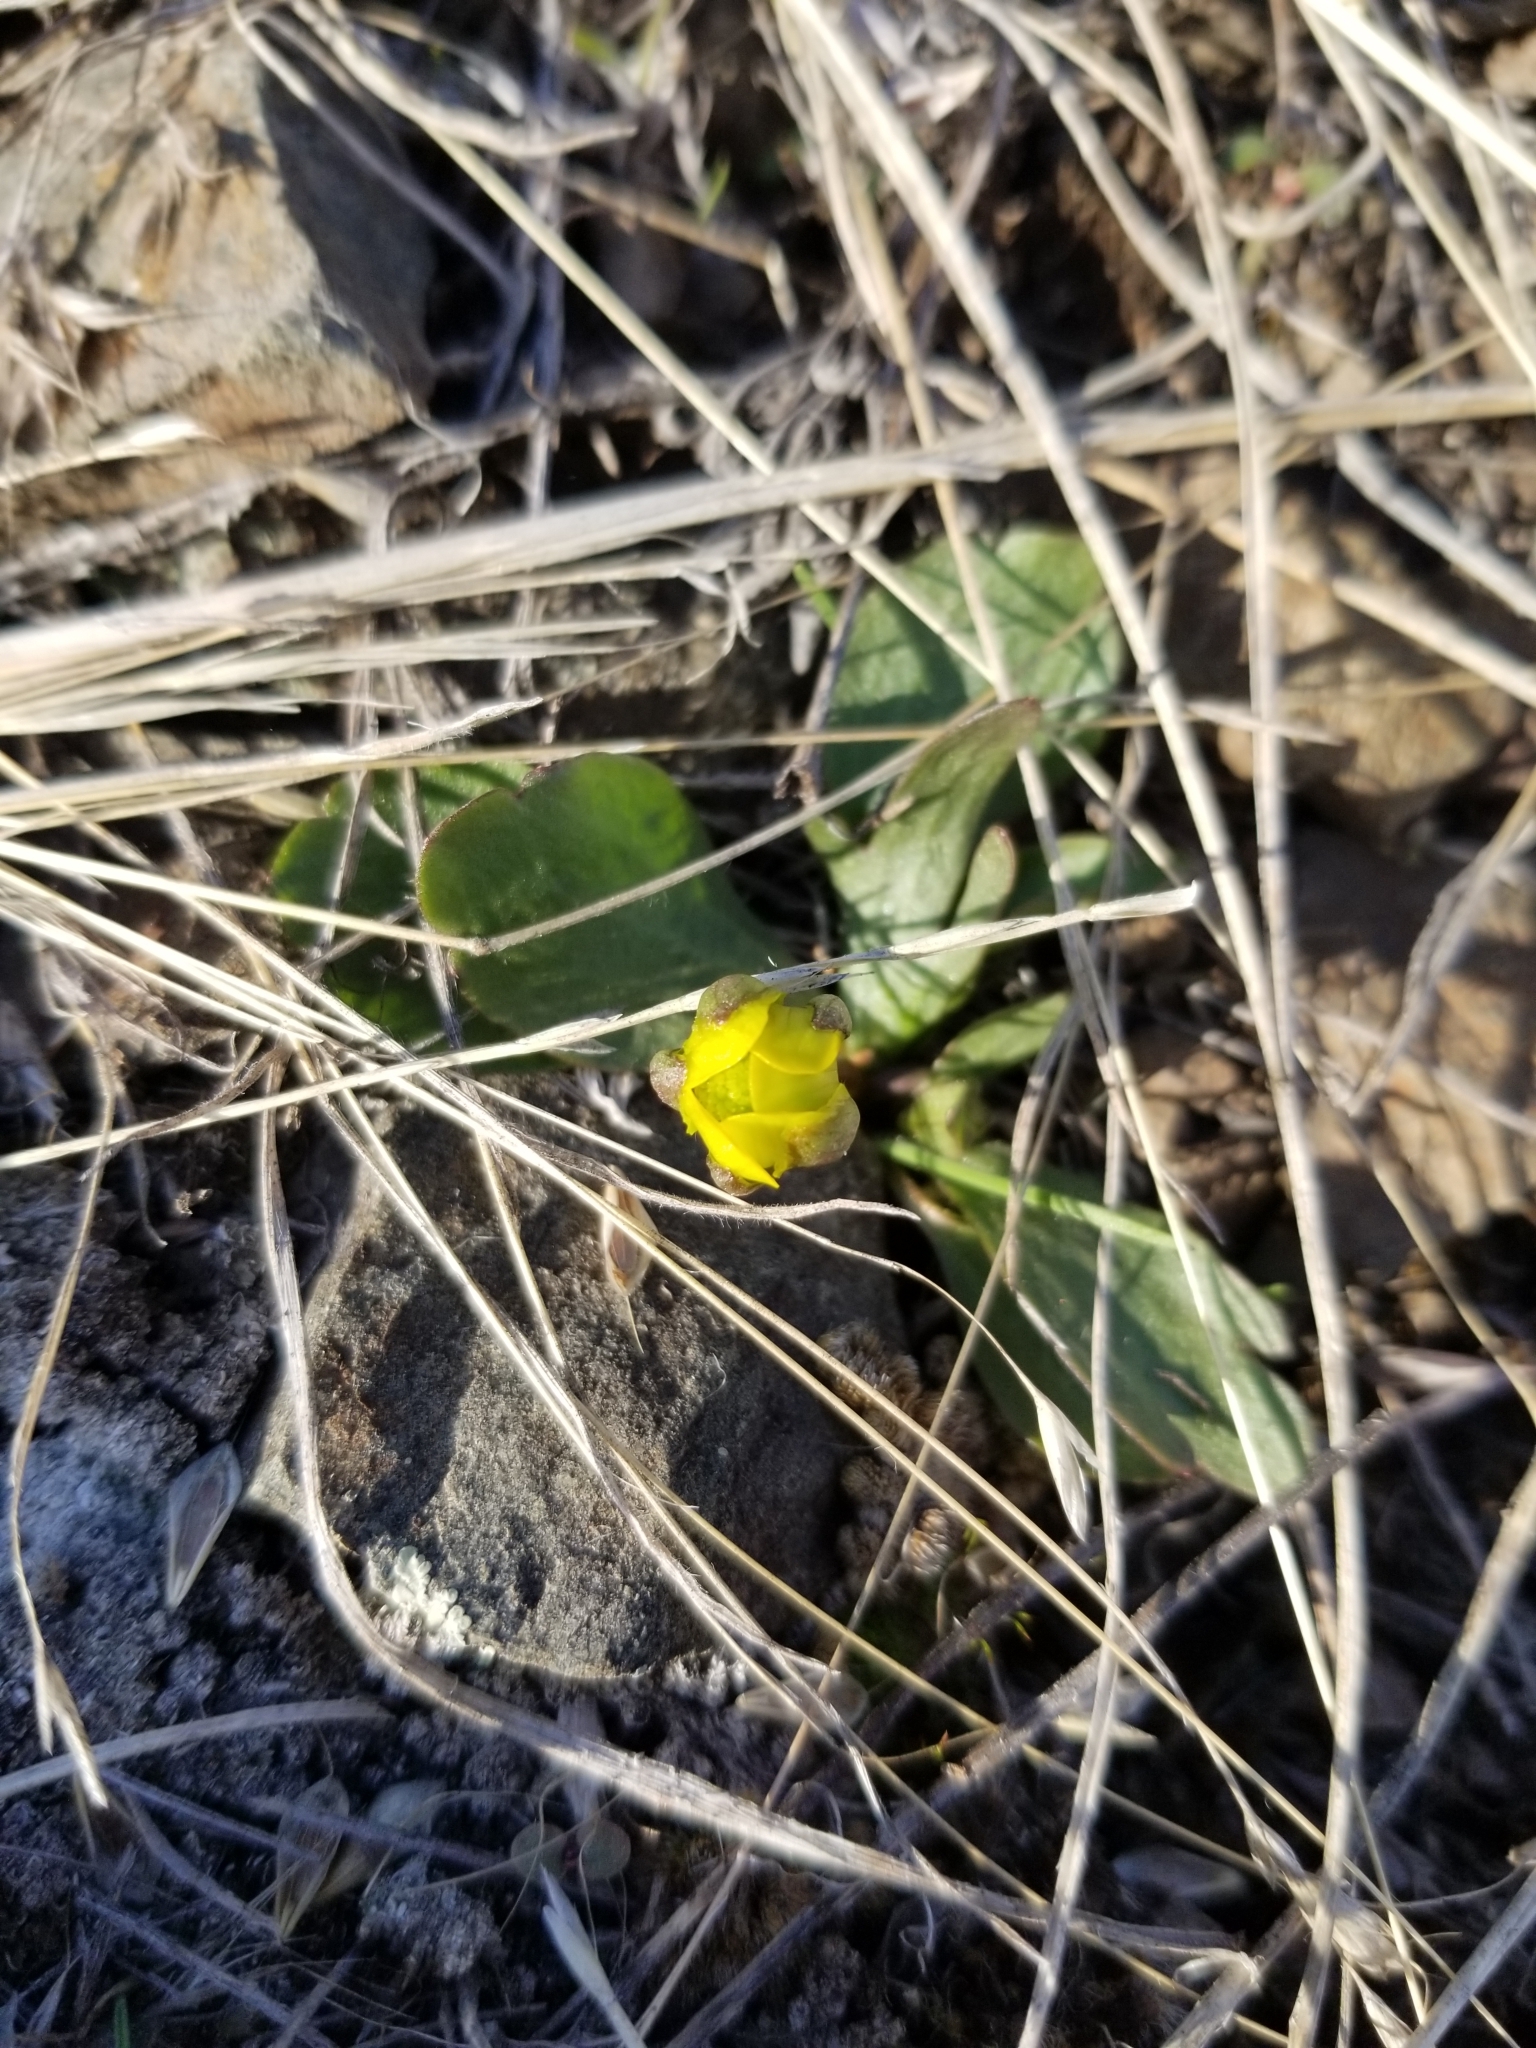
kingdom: Plantae
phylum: Tracheophyta
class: Magnoliopsida
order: Ranunculales
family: Ranunculaceae
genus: Ranunculus
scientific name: Ranunculus glaberrimus
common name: Sagebrush buttercup
